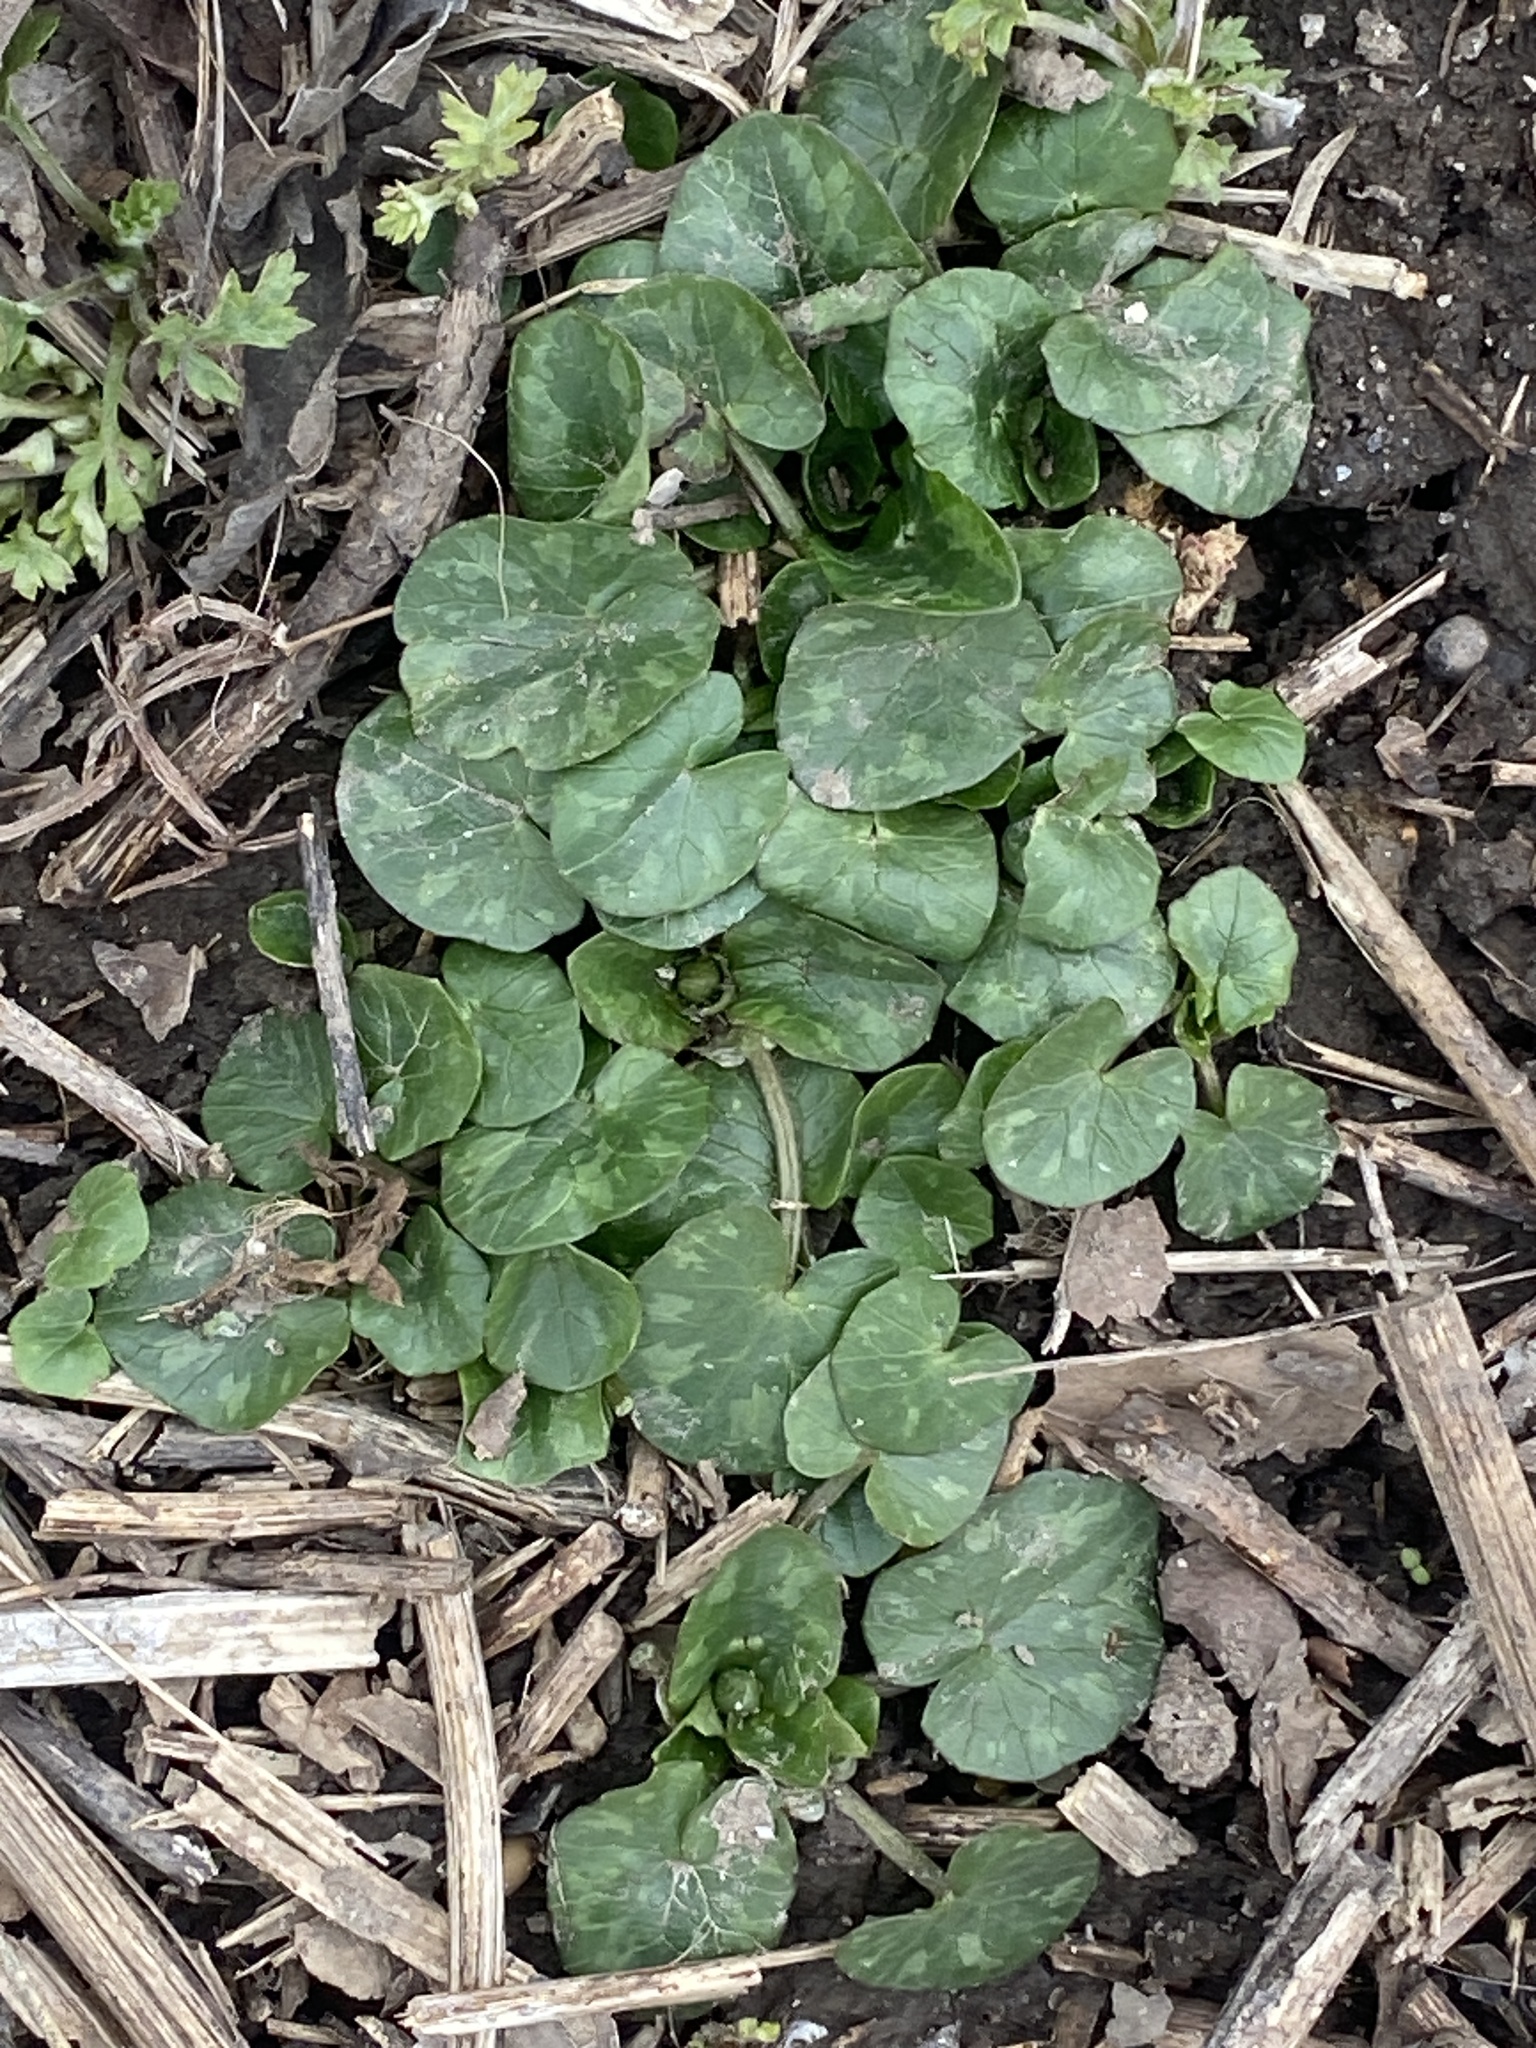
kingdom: Plantae
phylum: Tracheophyta
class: Magnoliopsida
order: Ranunculales
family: Ranunculaceae
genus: Ficaria
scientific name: Ficaria verna
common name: Lesser celandine
